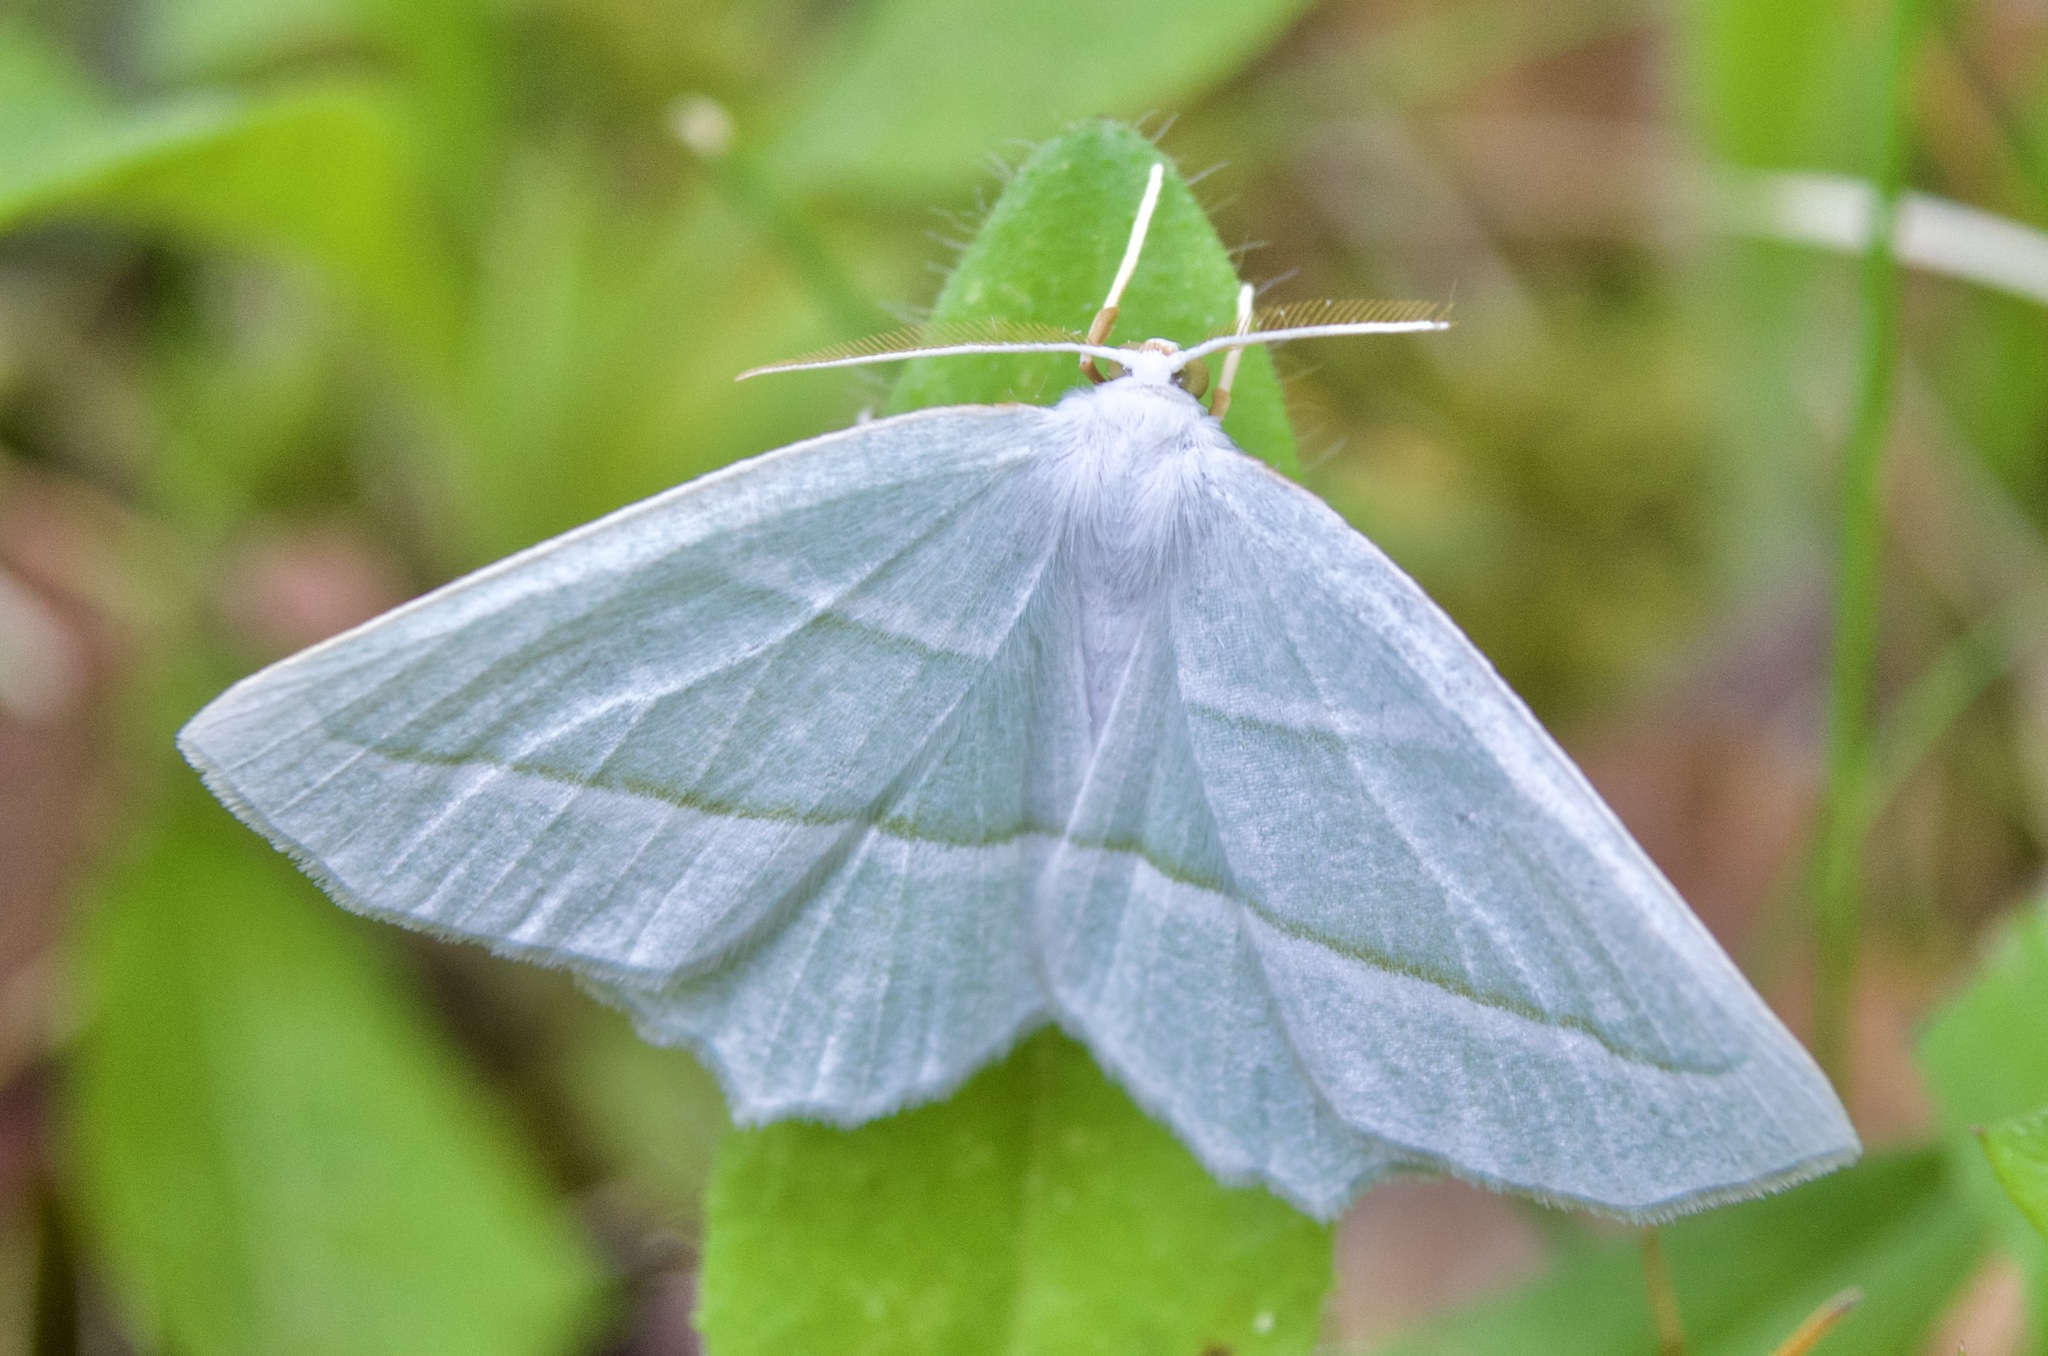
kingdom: Animalia
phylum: Arthropoda
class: Insecta
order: Lepidoptera
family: Geometridae
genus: Campaea
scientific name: Campaea perlata
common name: Fringed looper
